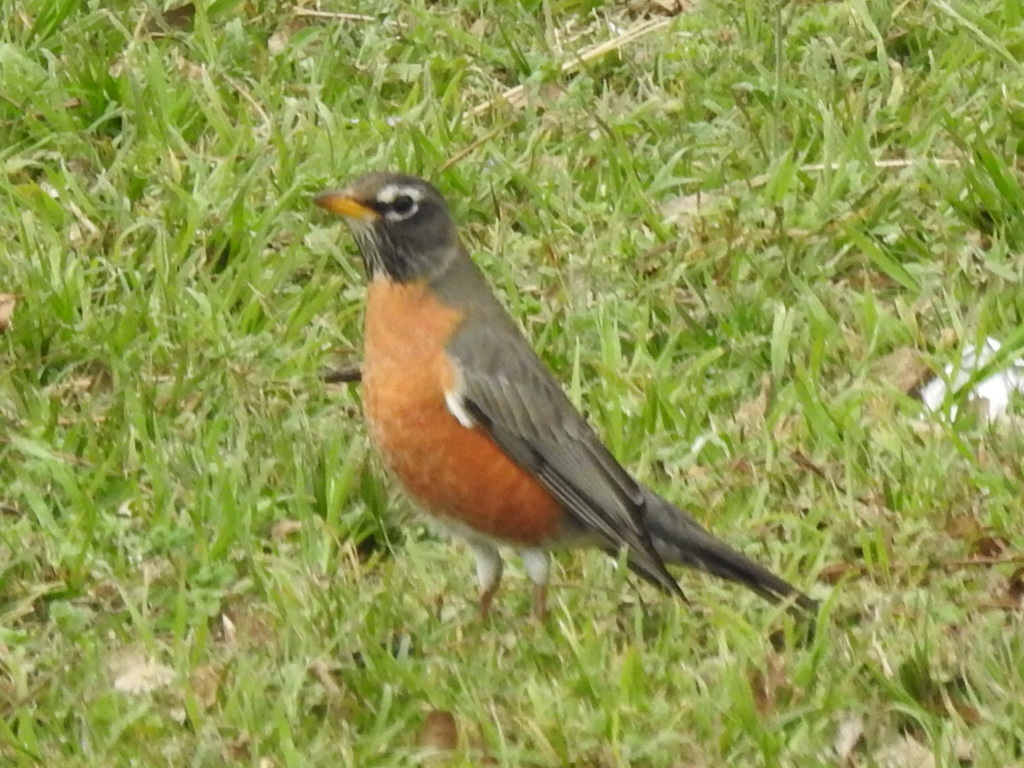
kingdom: Animalia
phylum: Chordata
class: Aves
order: Passeriformes
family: Turdidae
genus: Turdus
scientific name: Turdus migratorius
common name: American robin
